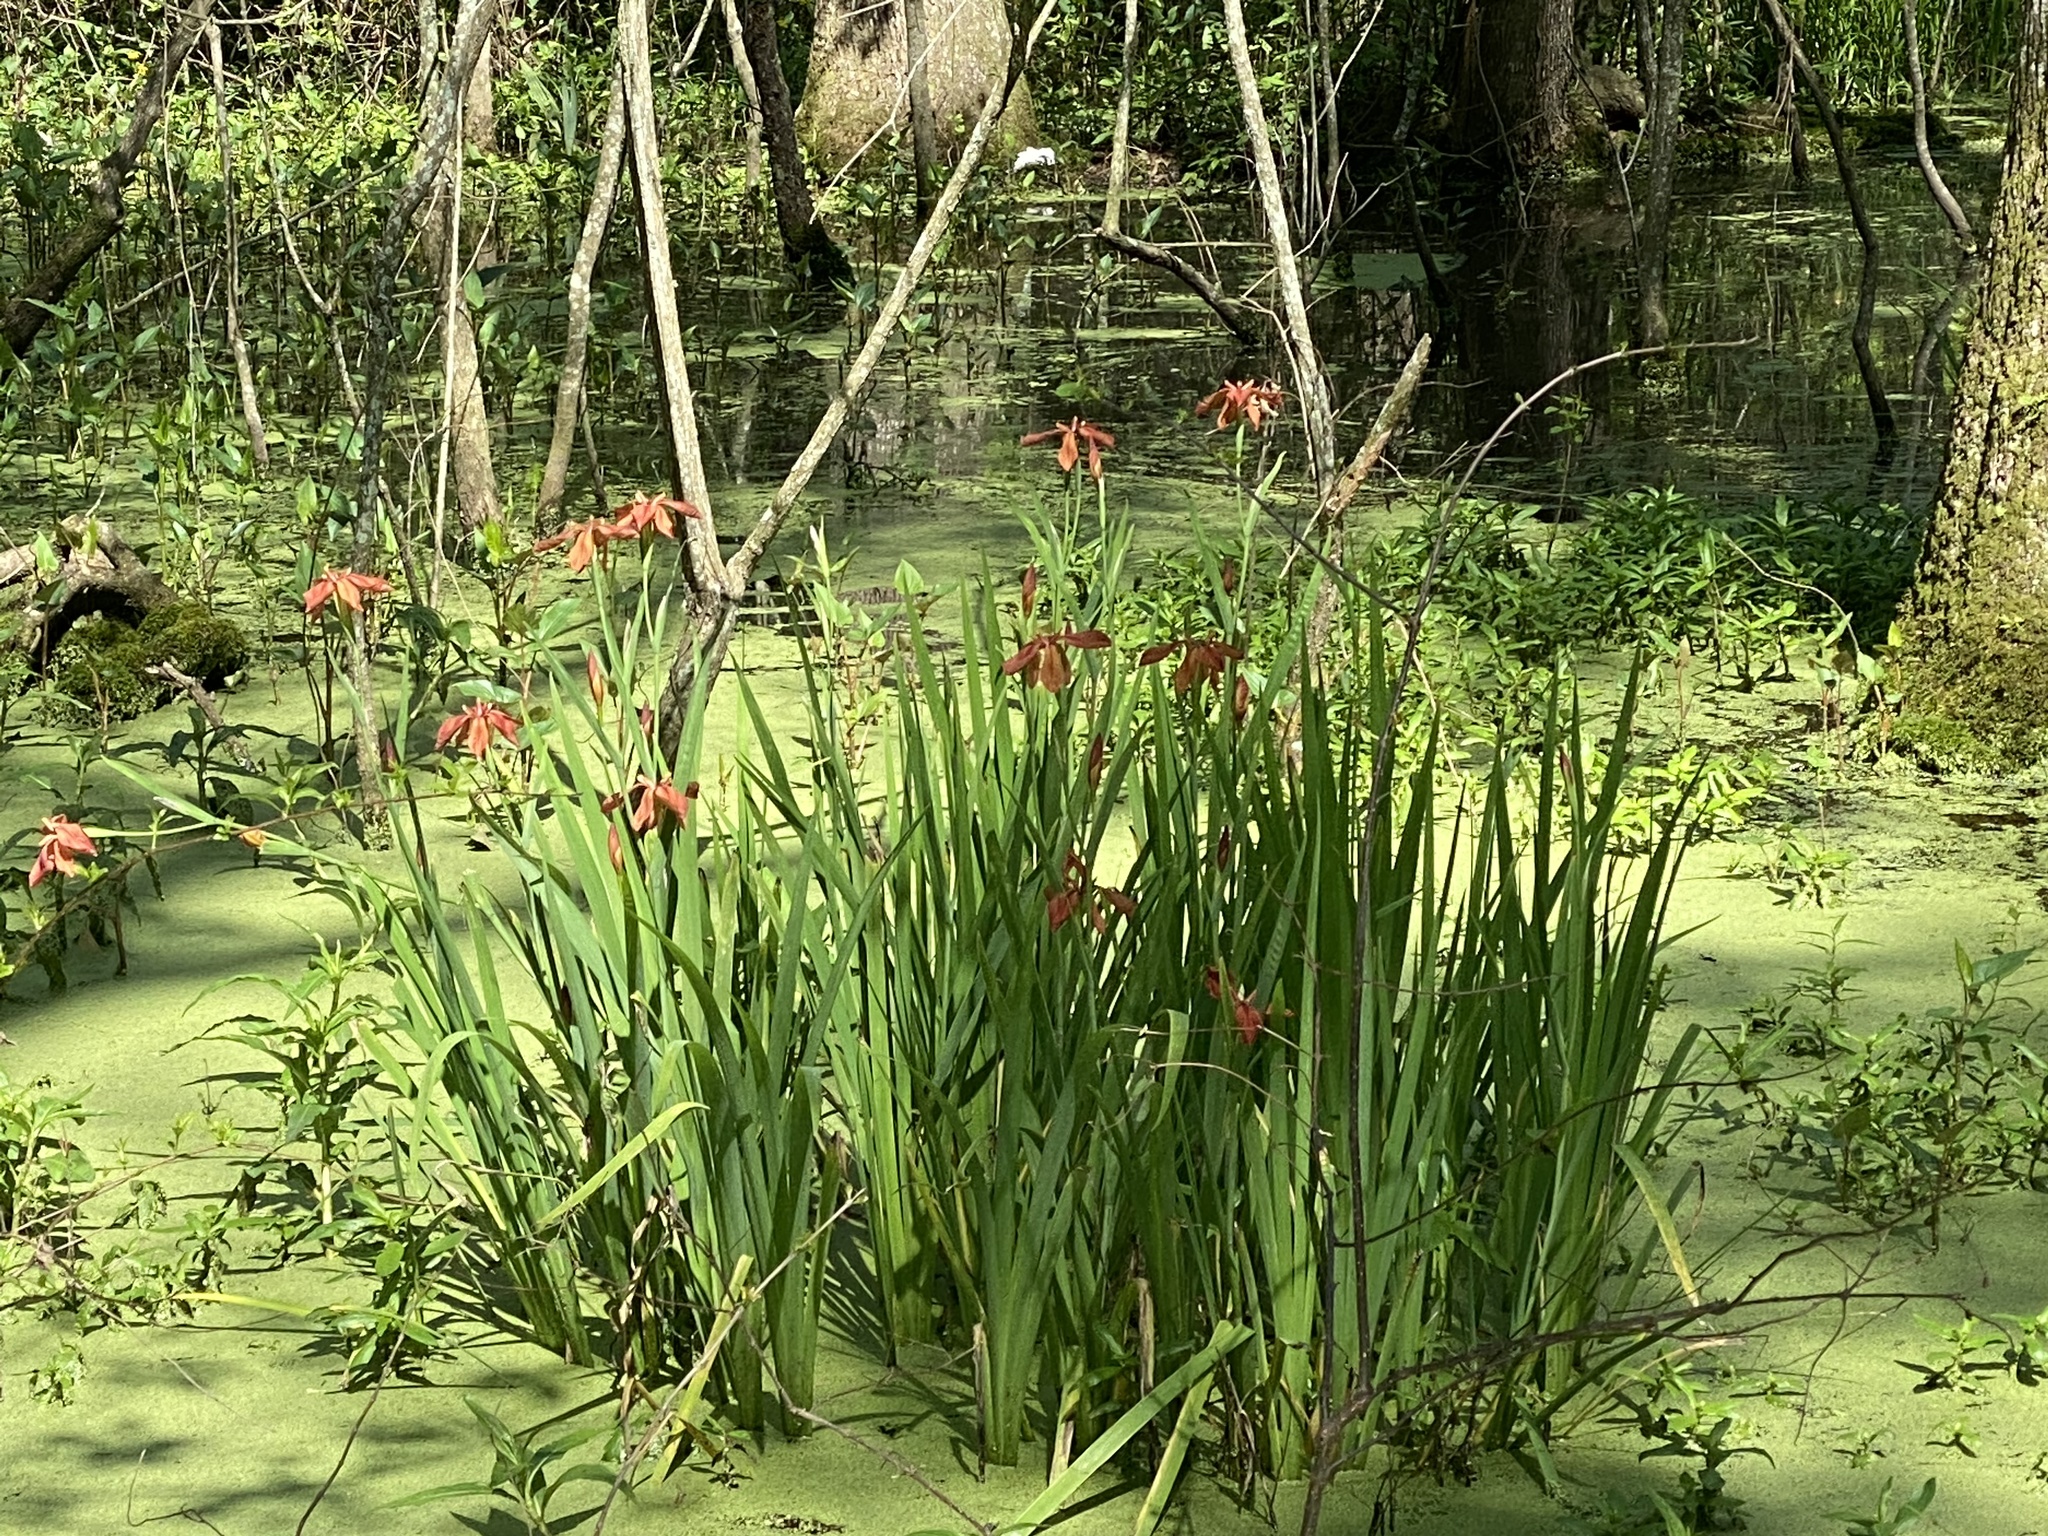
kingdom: Plantae
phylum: Tracheophyta
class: Liliopsida
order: Asparagales
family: Iridaceae
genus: Iris
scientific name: Iris fulva
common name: Copper iris
